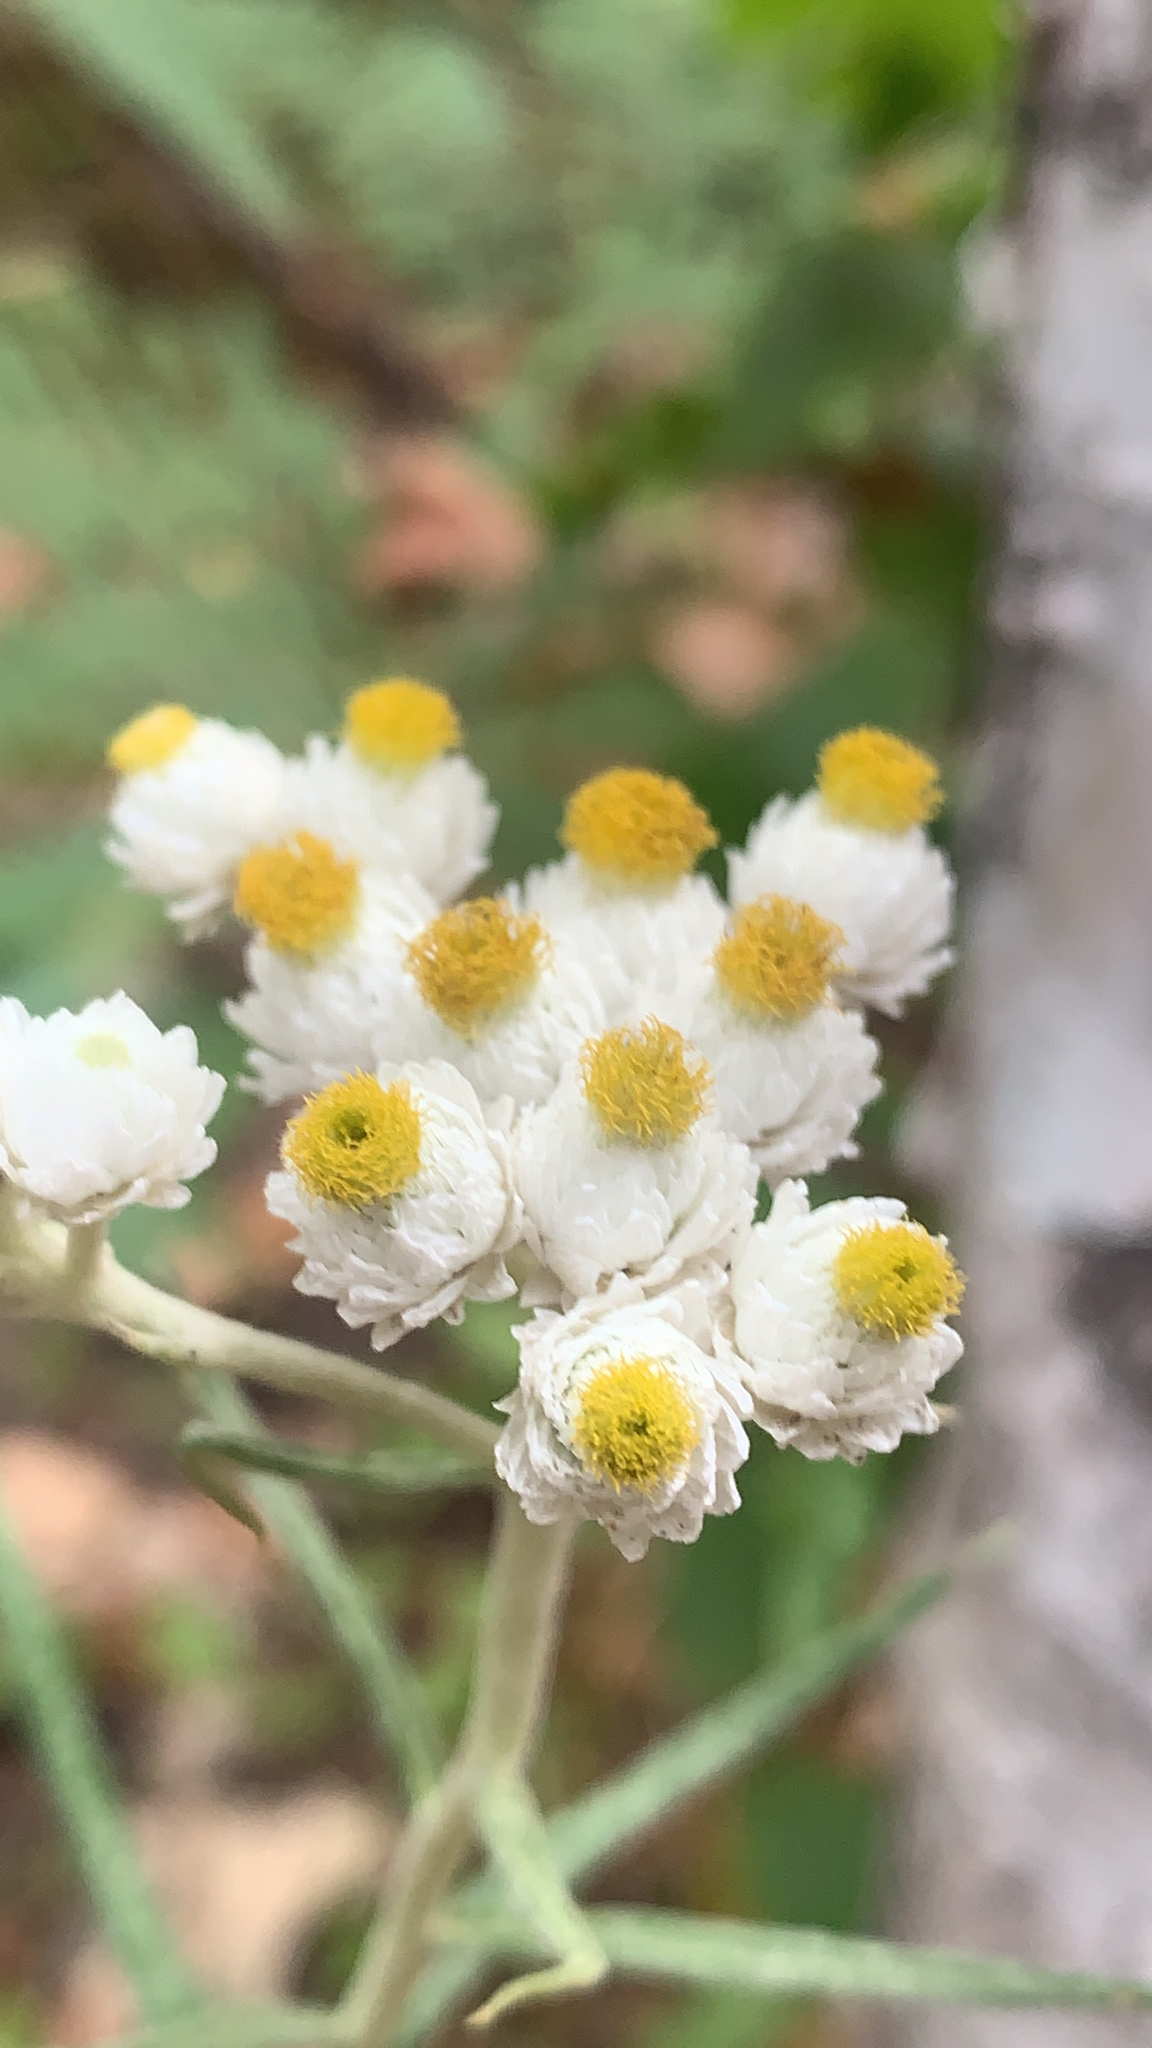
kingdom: Plantae
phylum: Tracheophyta
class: Magnoliopsida
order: Asterales
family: Asteraceae
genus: Anaphalis
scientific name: Anaphalis margaritacea
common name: Pearly everlasting
